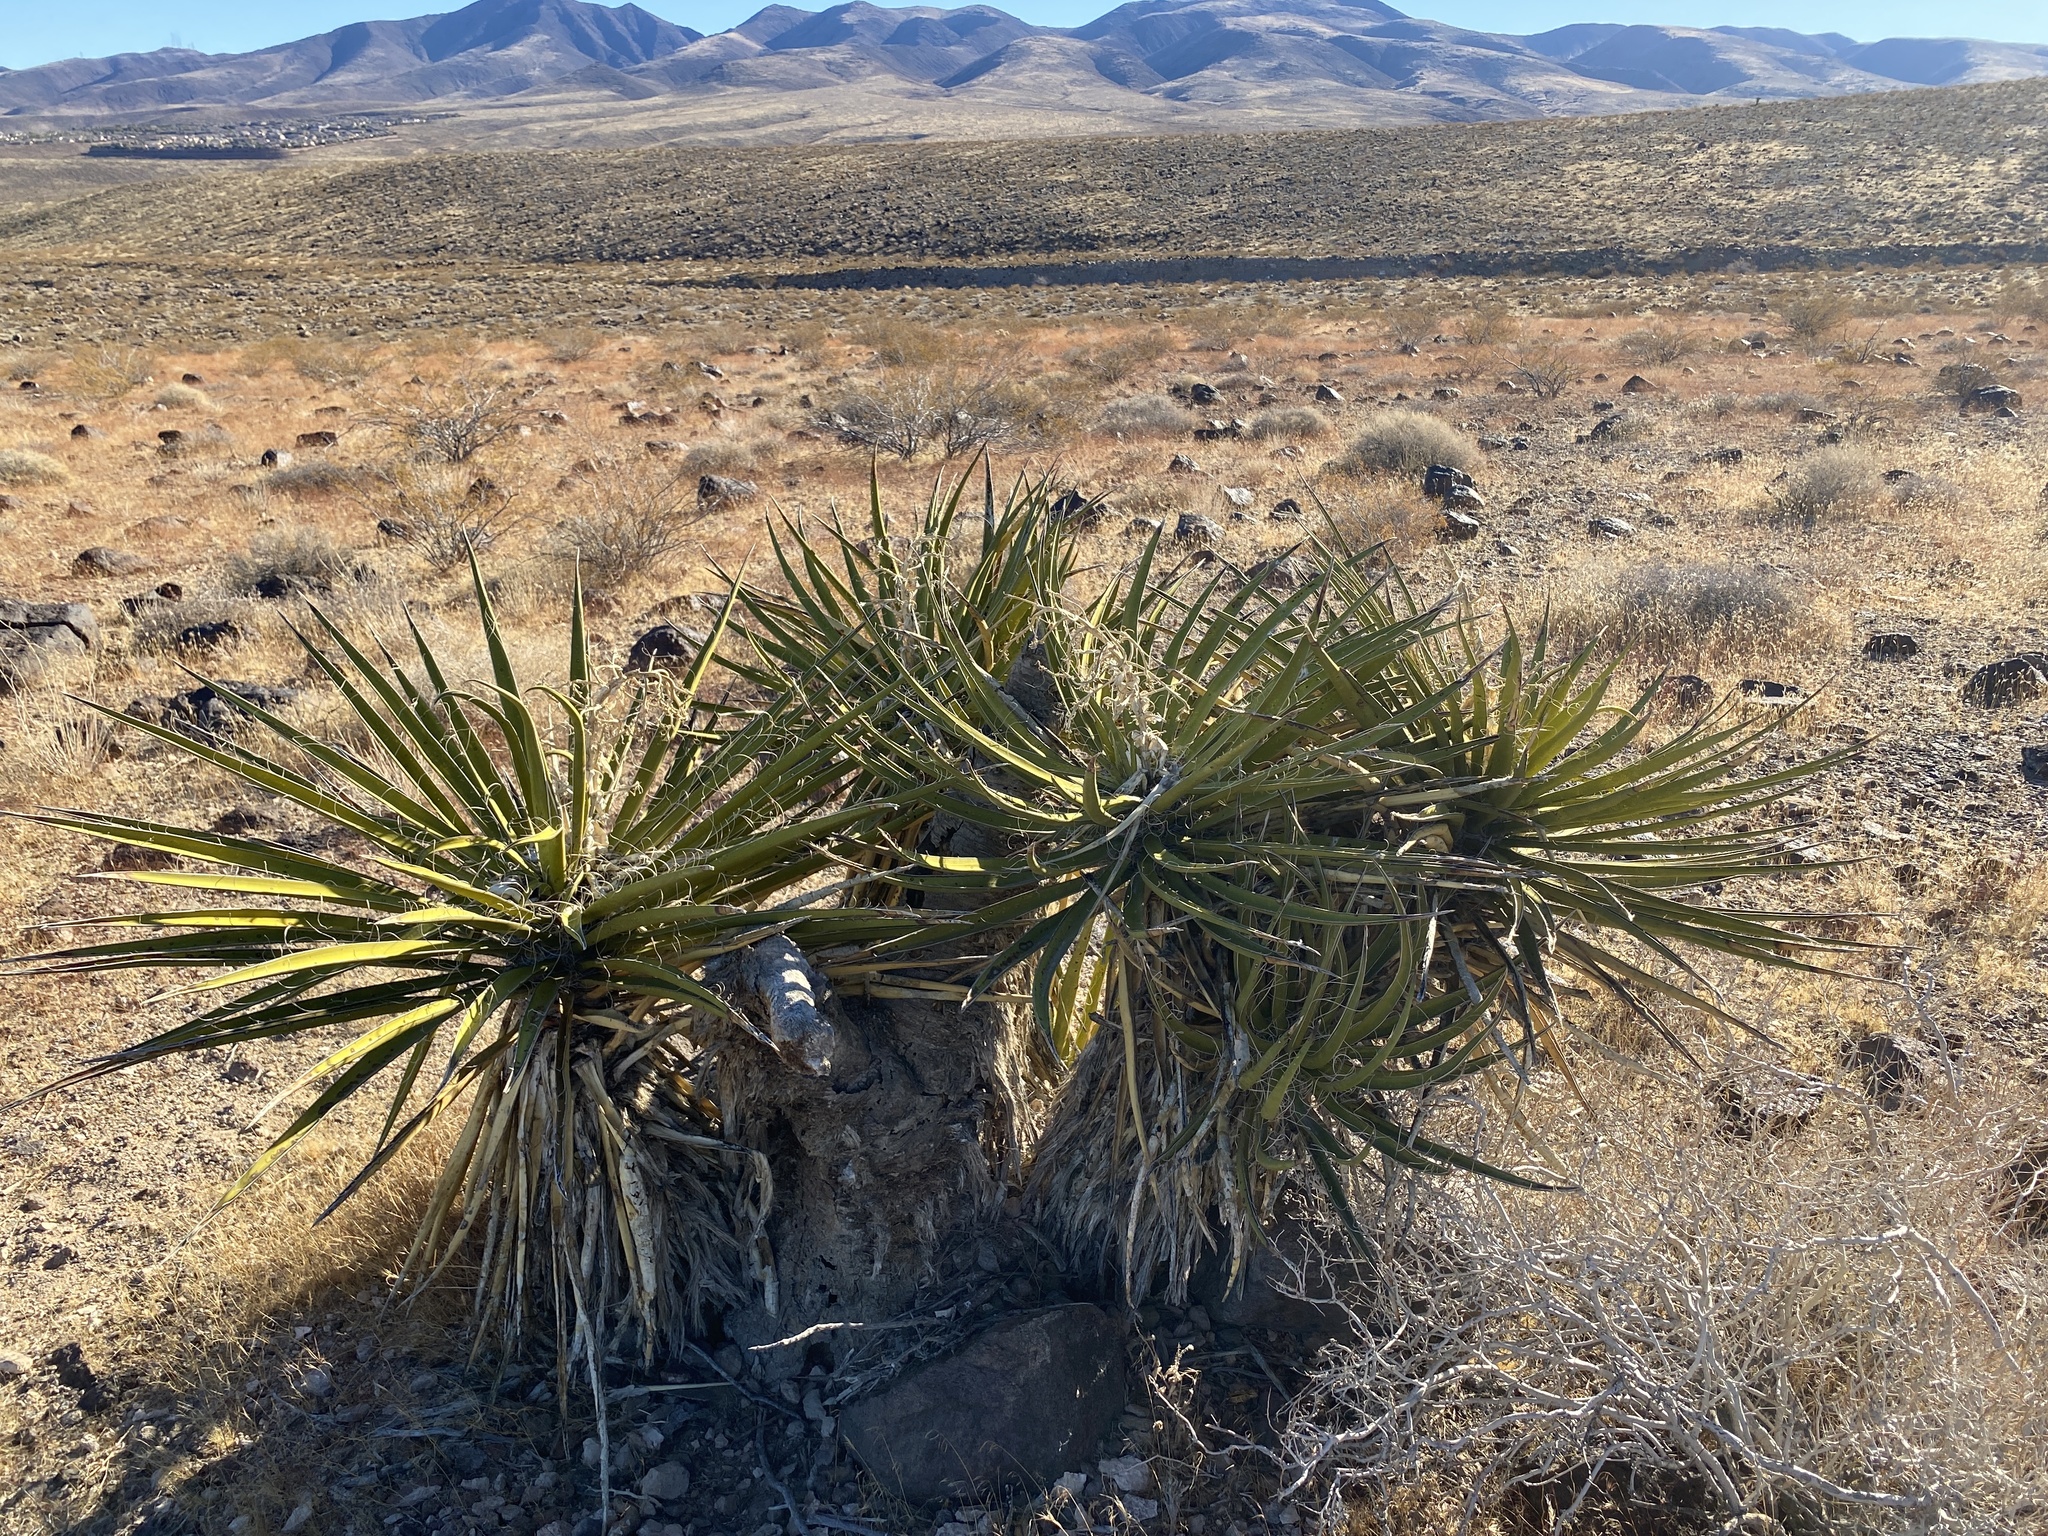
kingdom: Plantae
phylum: Tracheophyta
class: Liliopsida
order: Asparagales
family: Asparagaceae
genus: Yucca
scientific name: Yucca schidigera
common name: Mojave yucca
